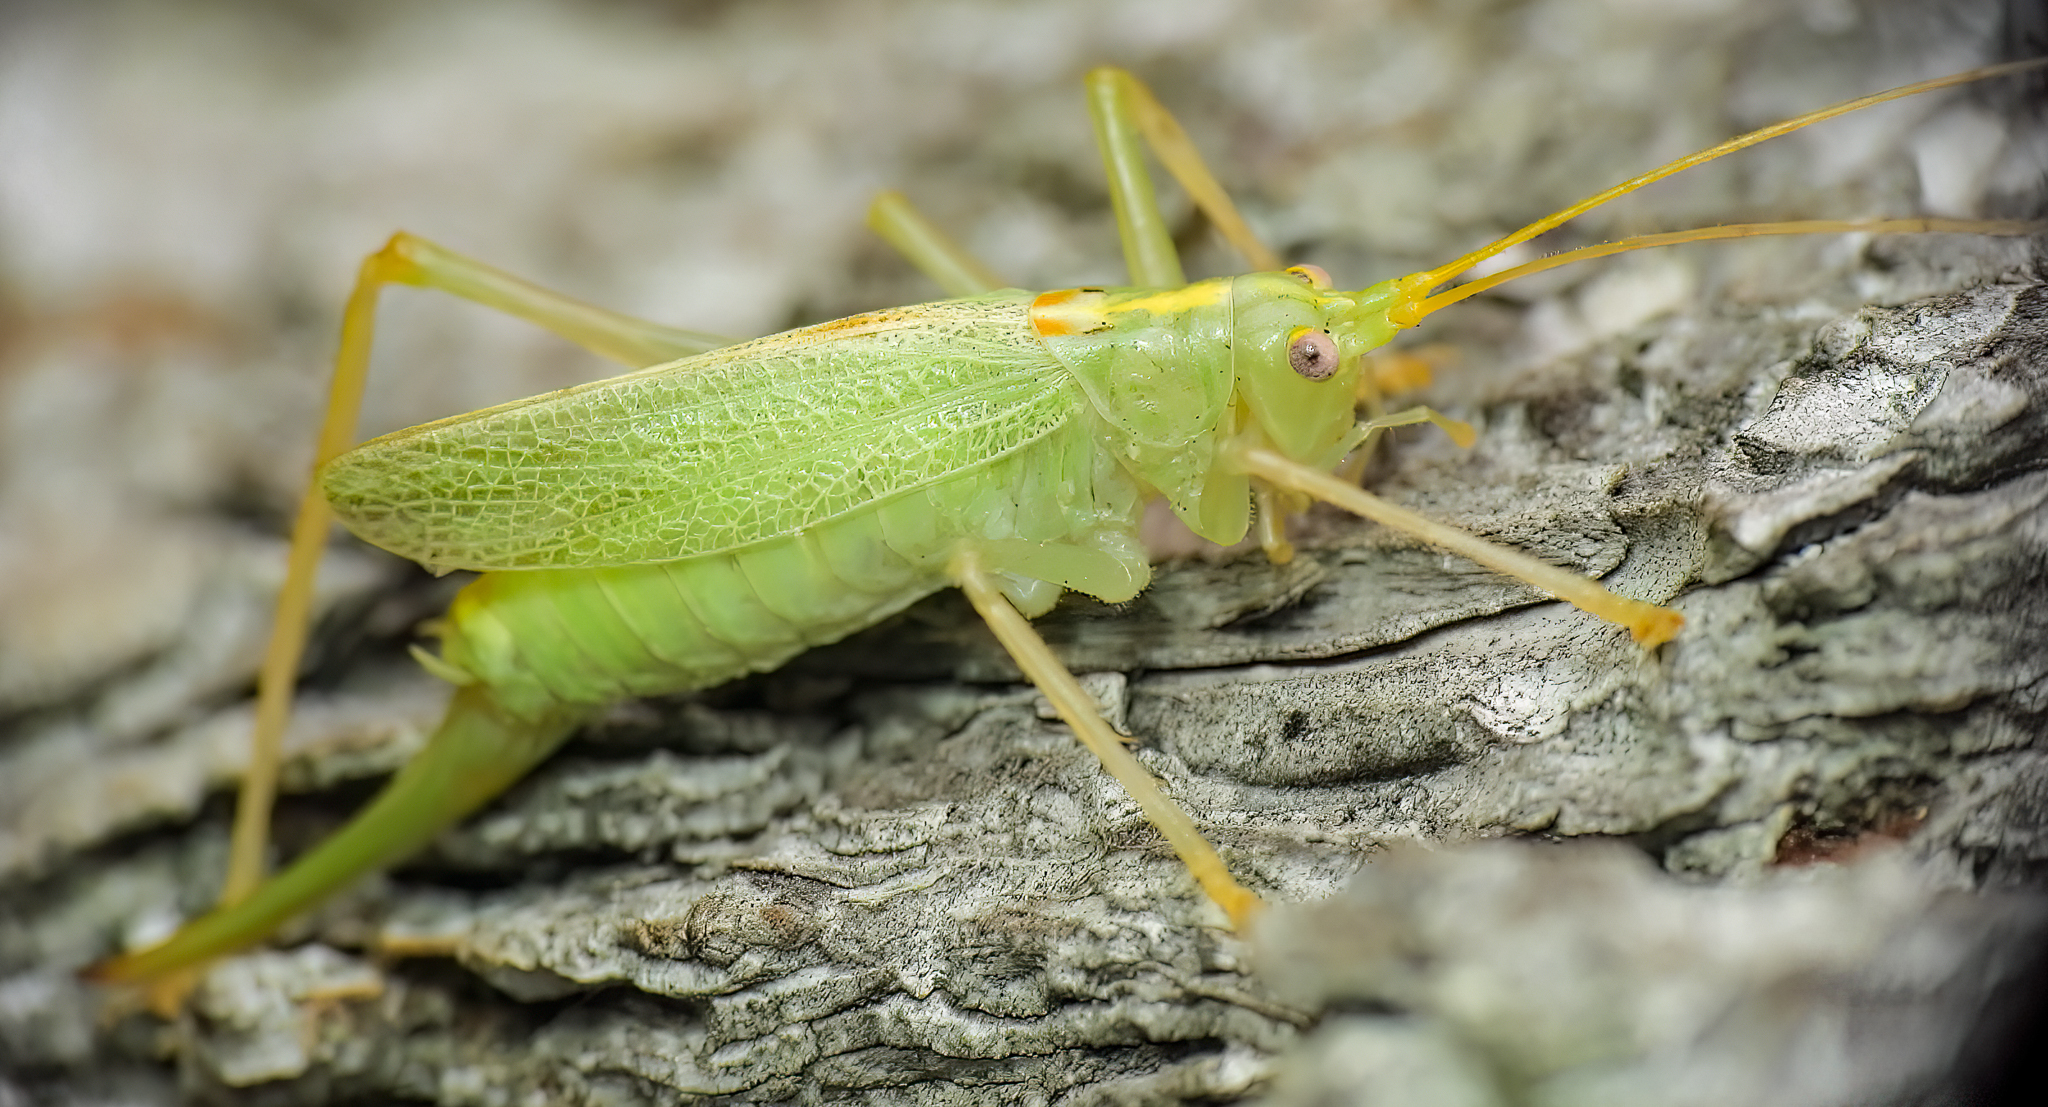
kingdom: Animalia
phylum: Arthropoda
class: Insecta
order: Orthoptera
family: Tettigoniidae
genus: Meconema
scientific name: Meconema thalassinum
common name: Oak bush-cricket
